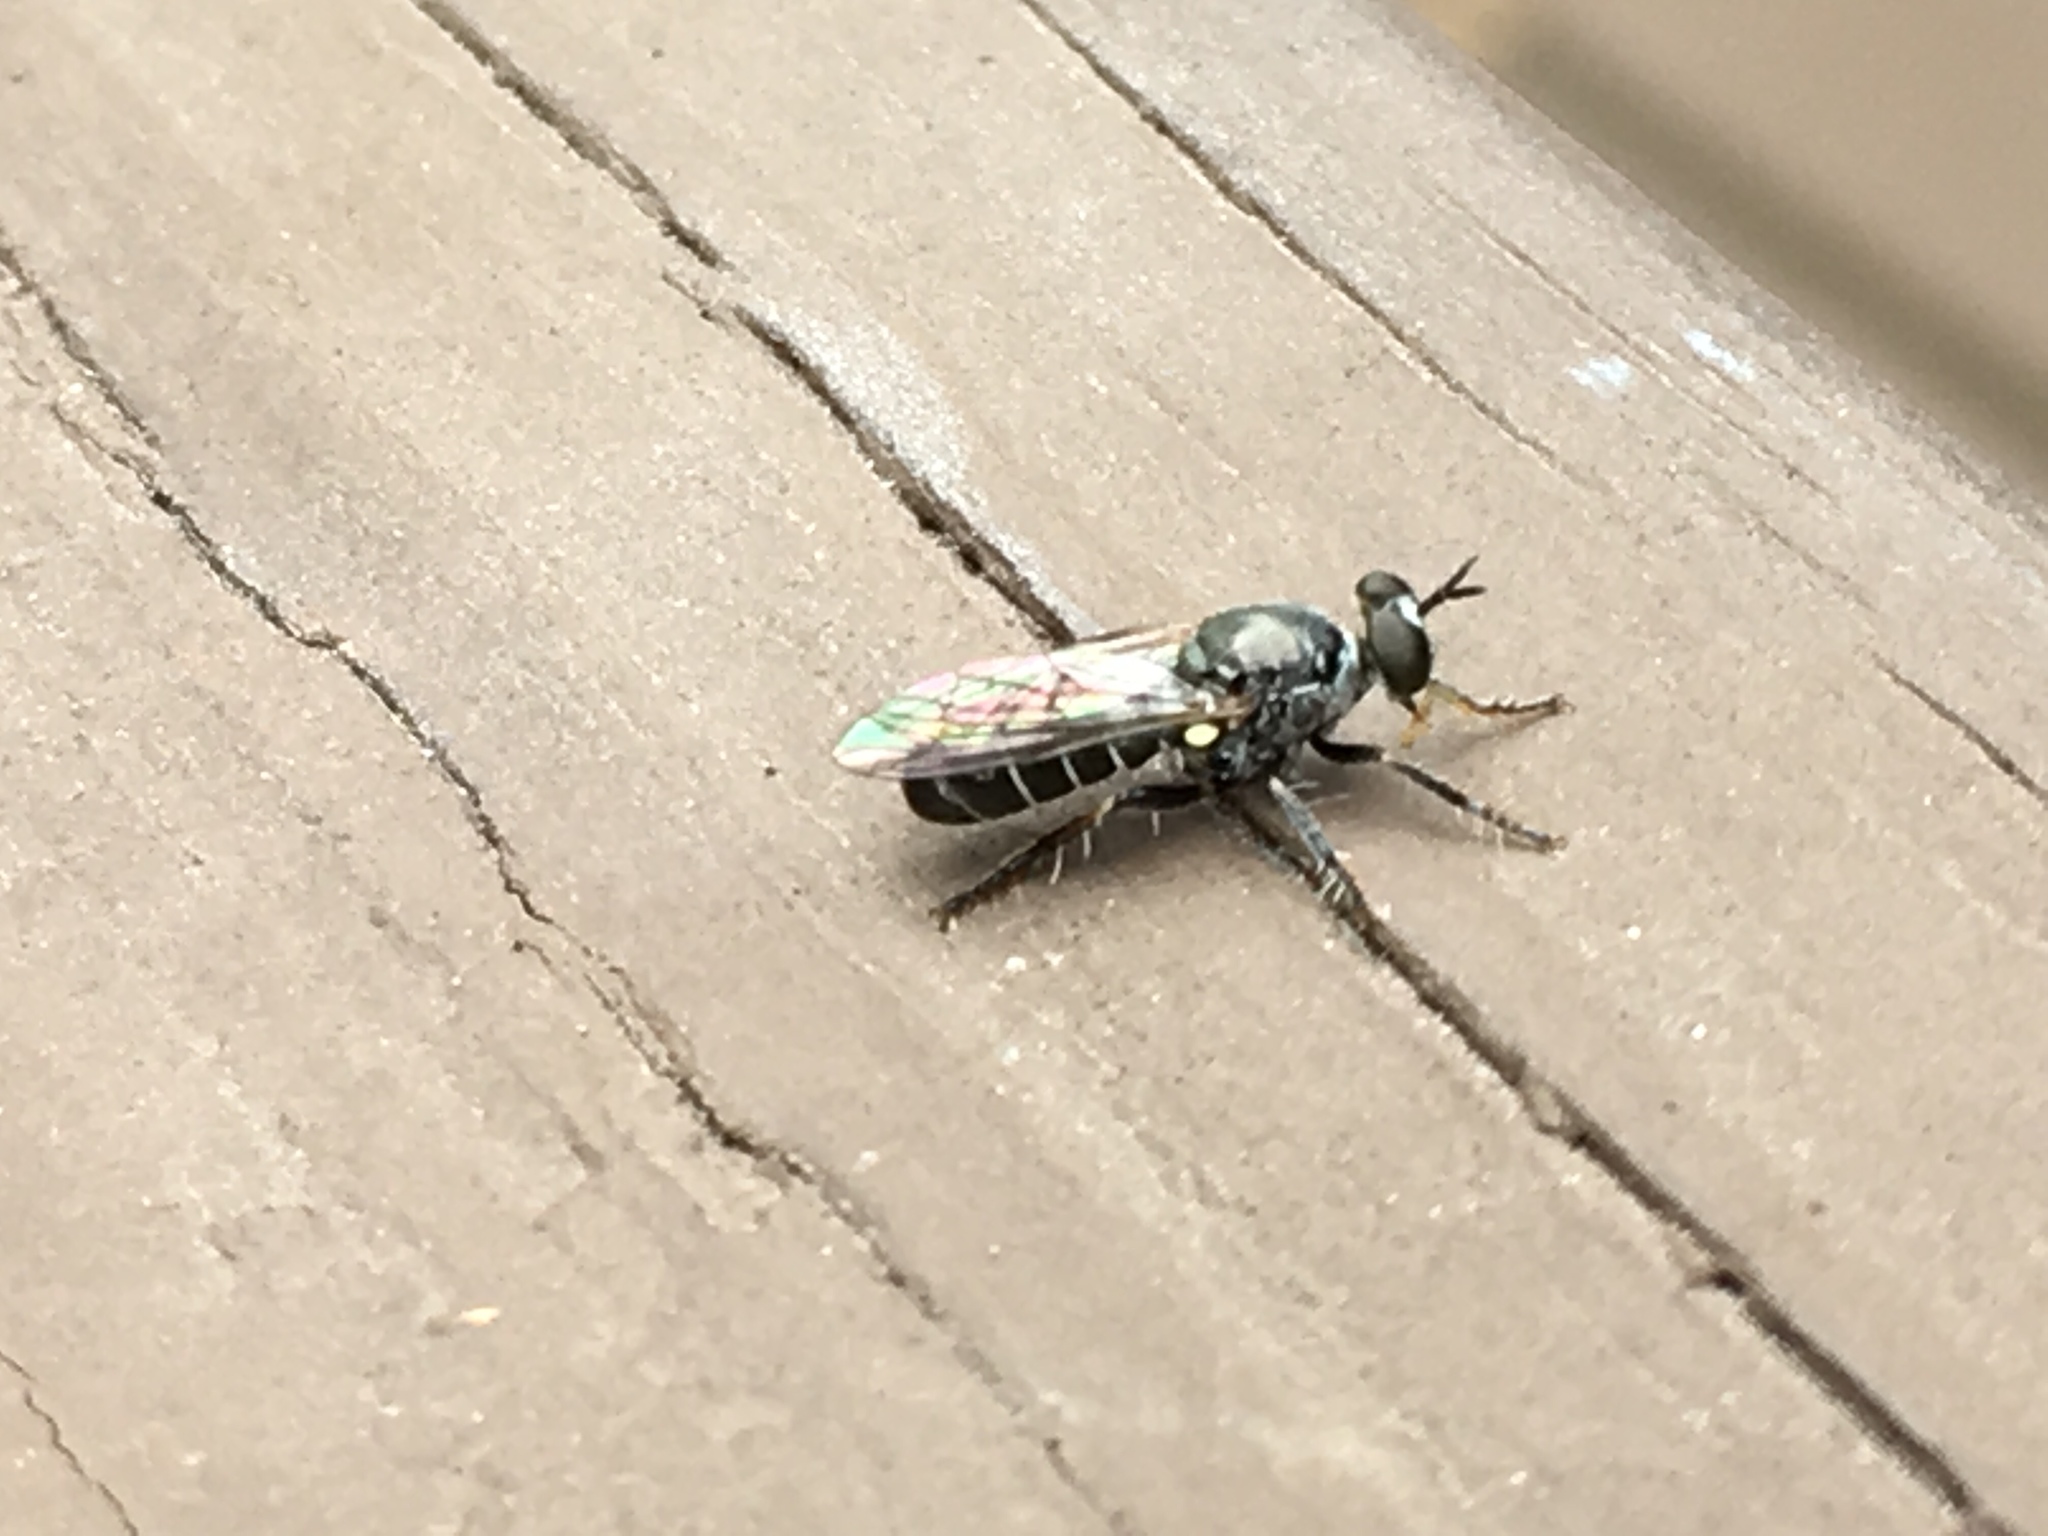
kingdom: Animalia
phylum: Arthropoda
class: Insecta
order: Diptera
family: Asilidae
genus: Atomosia
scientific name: Atomosia puella
